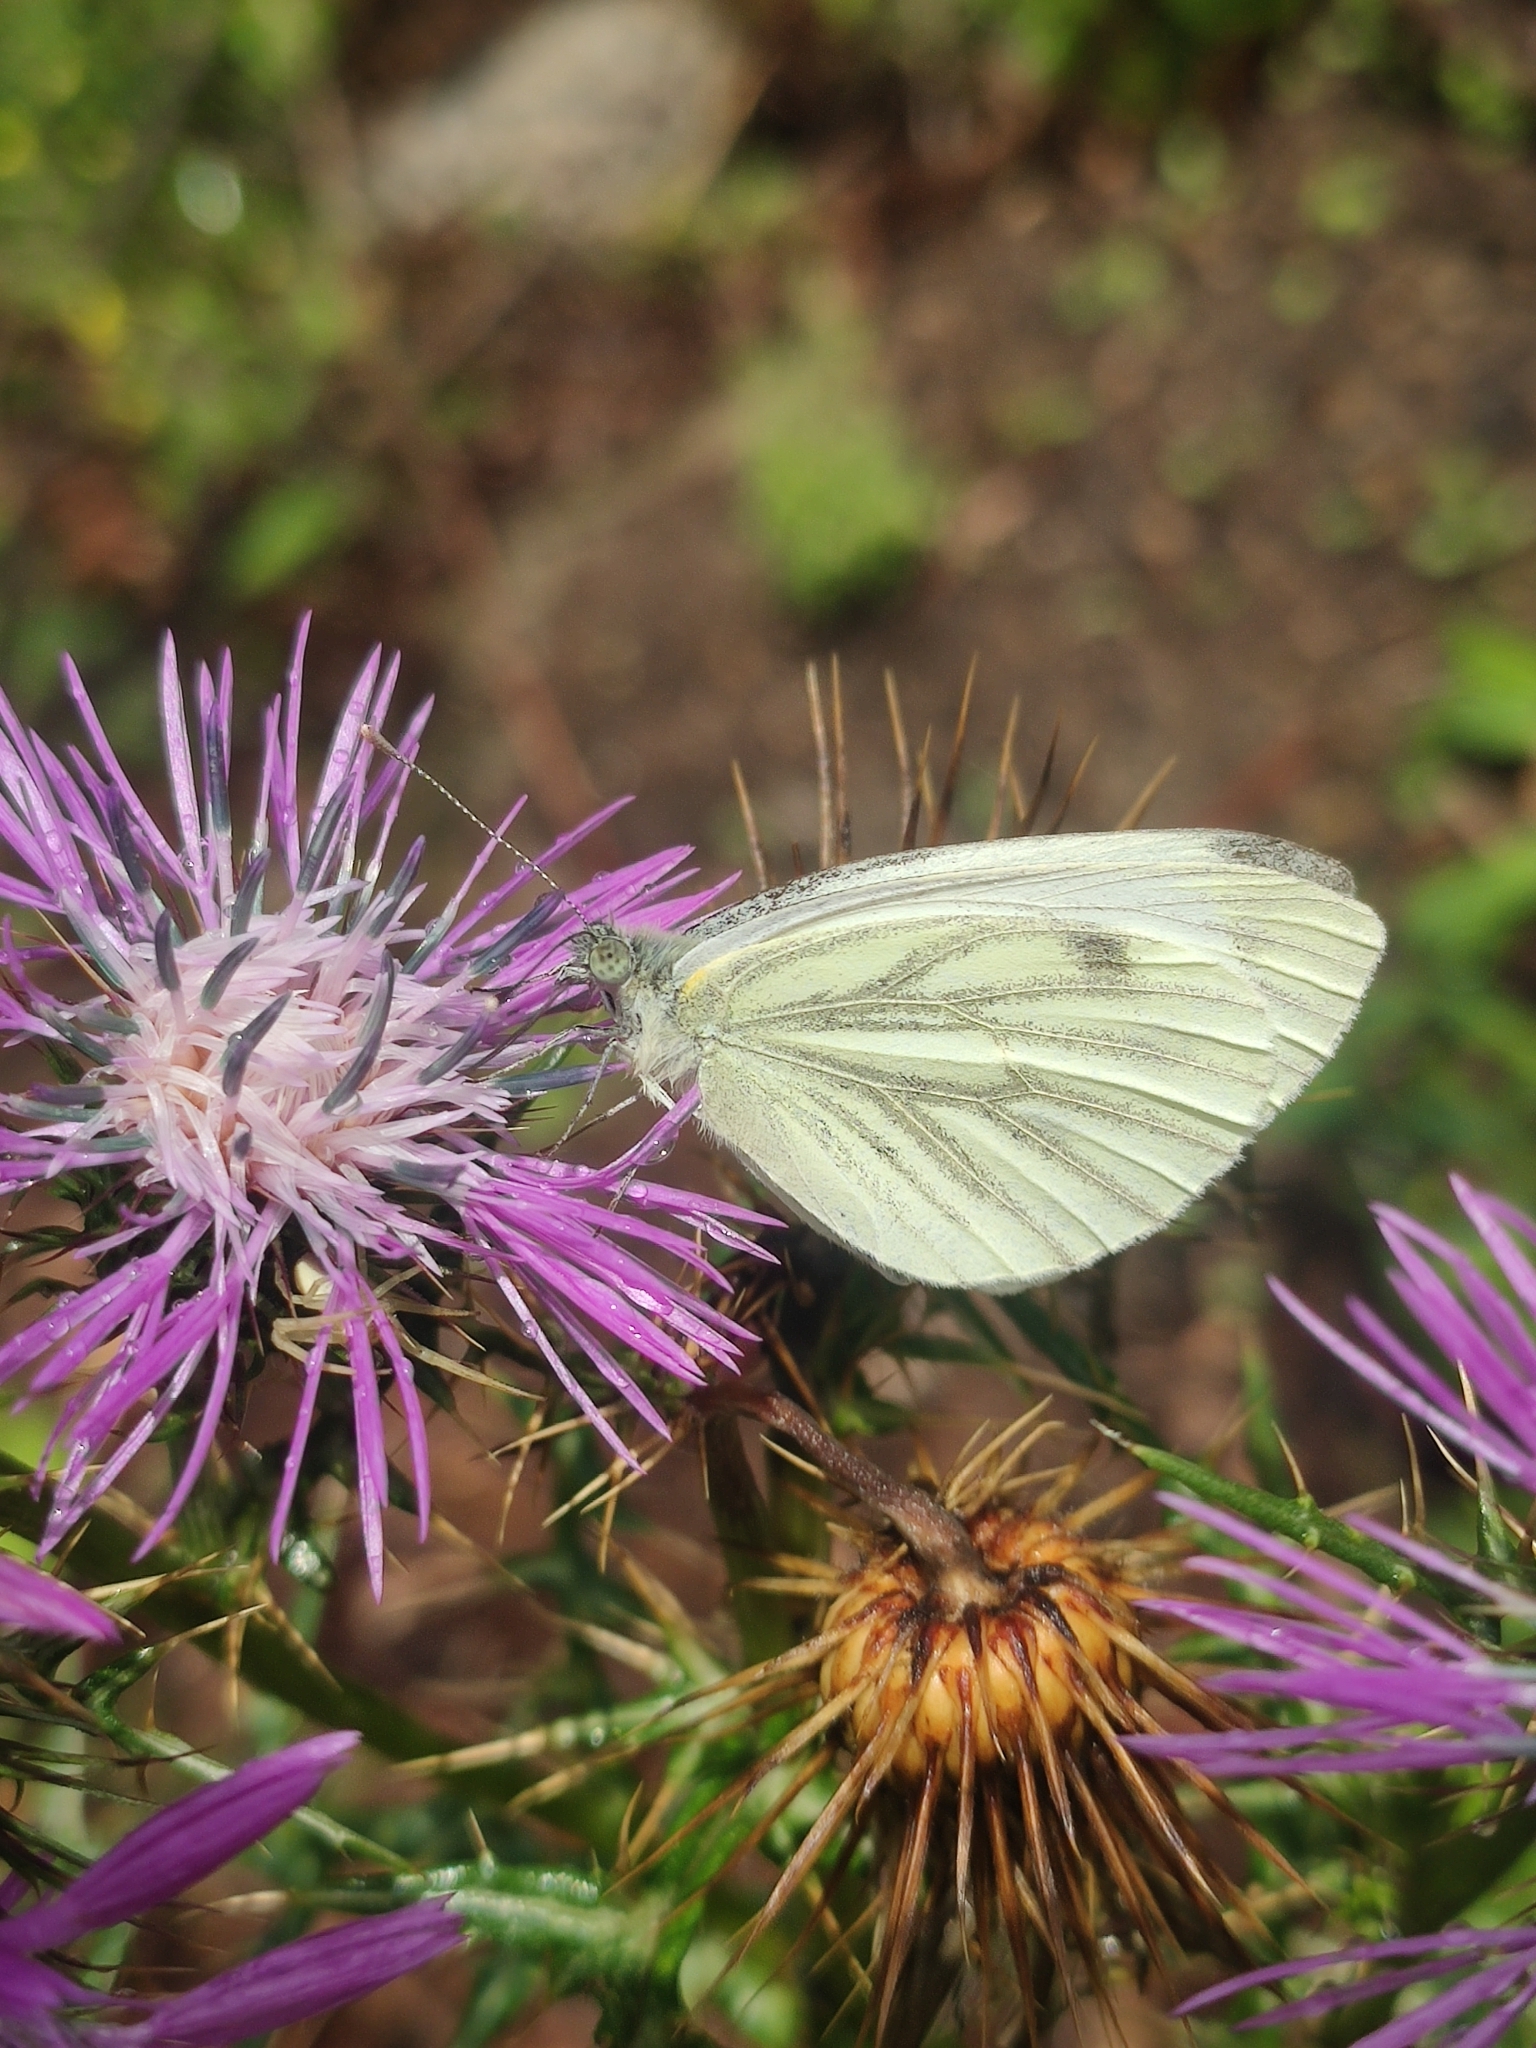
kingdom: Animalia
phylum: Arthropoda
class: Insecta
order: Lepidoptera
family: Pieridae
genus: Pieris
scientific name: Pieris napi
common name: Green-veined white
